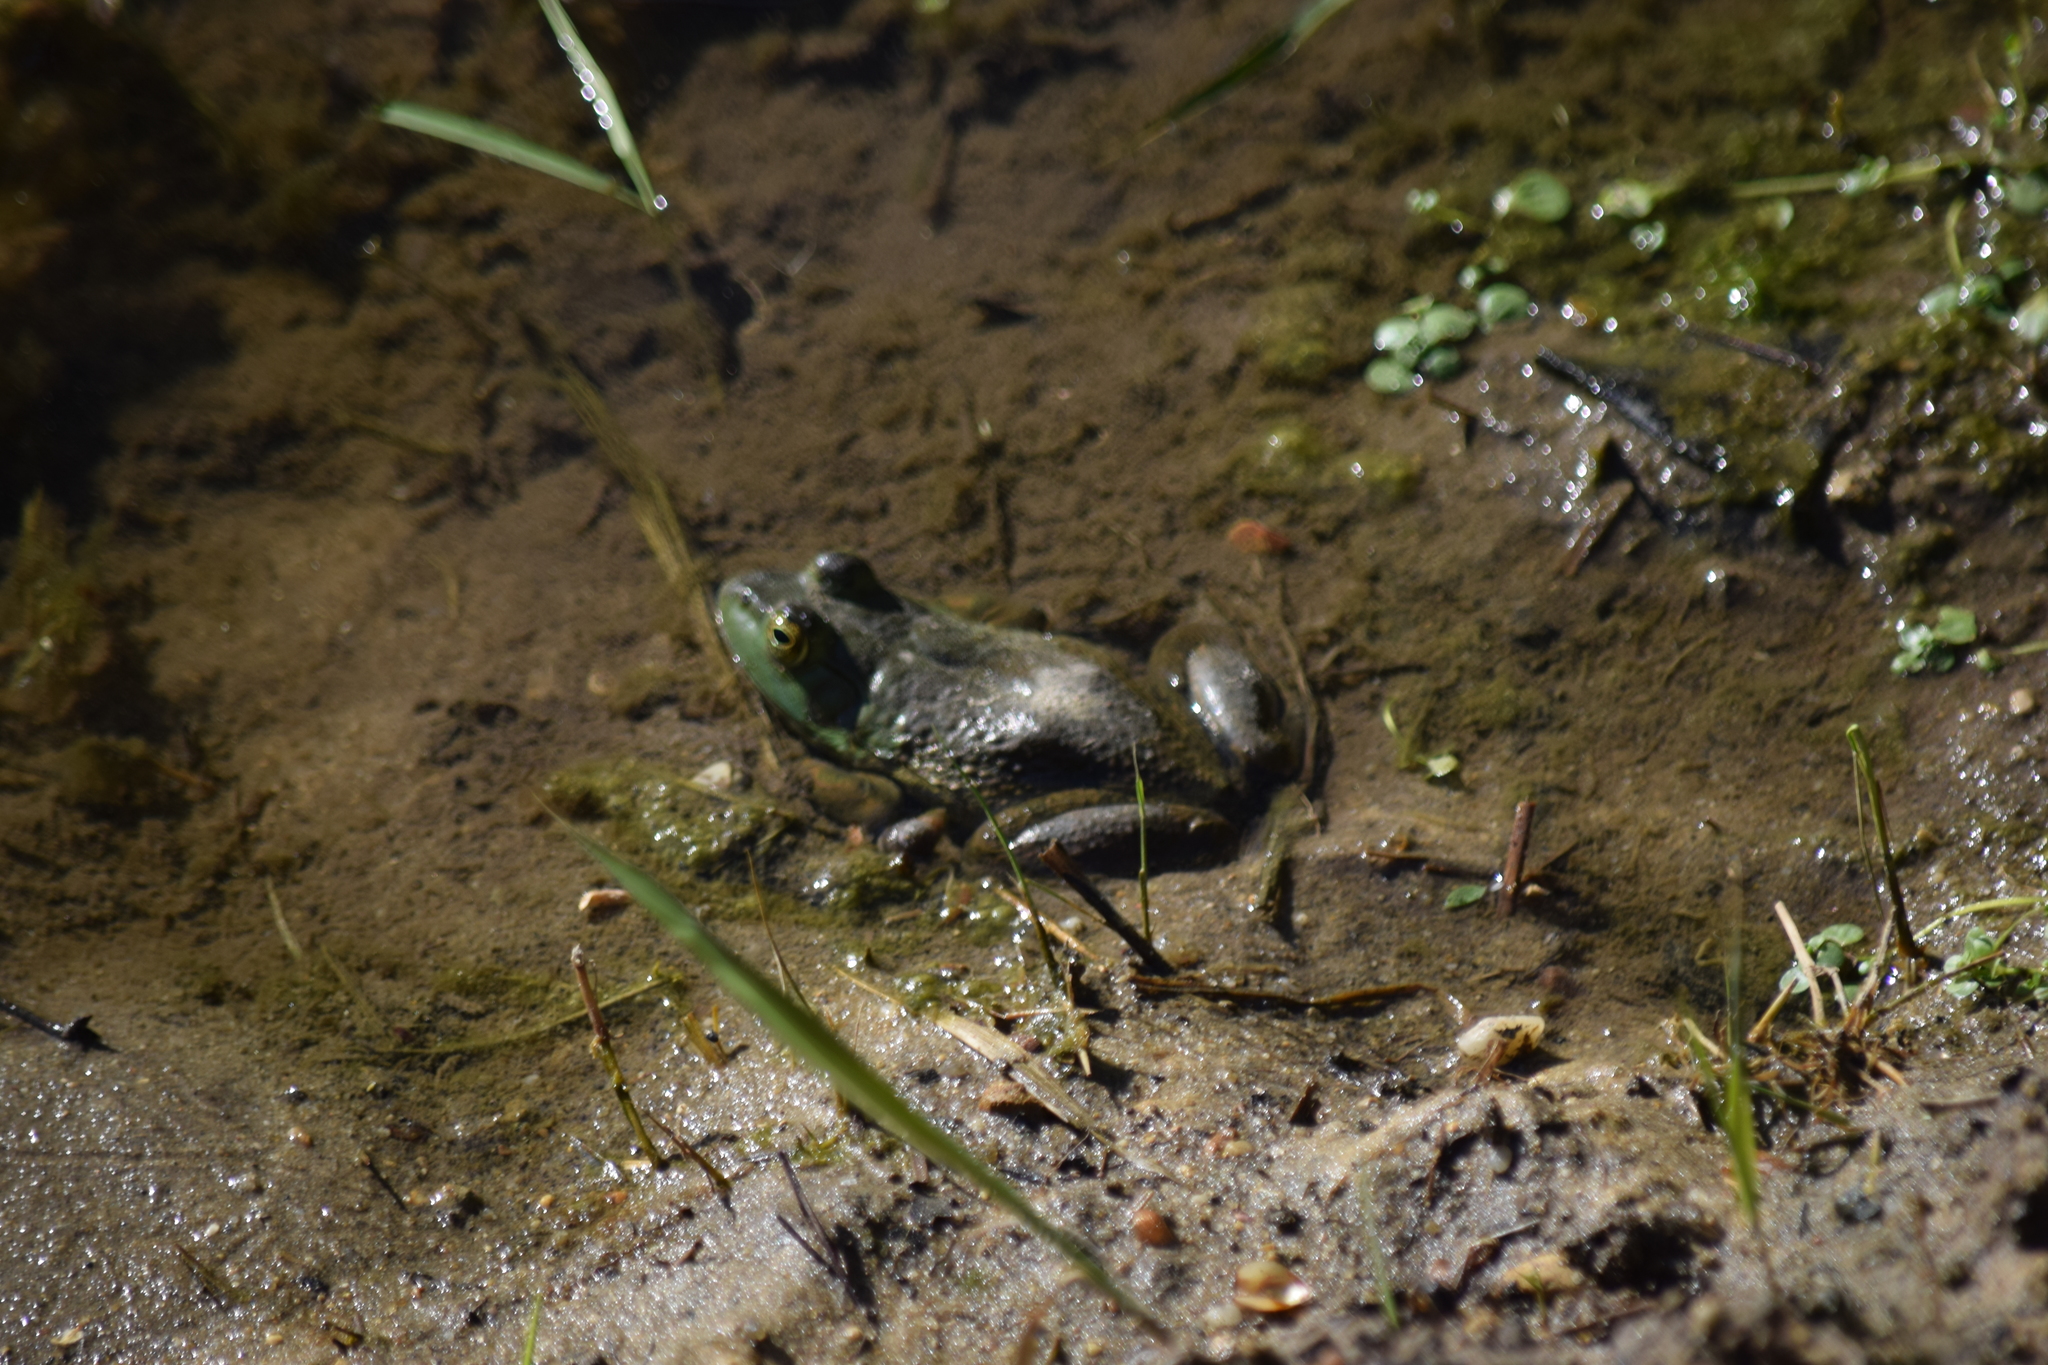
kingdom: Animalia
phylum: Chordata
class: Amphibia
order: Anura
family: Ranidae
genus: Lithobates
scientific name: Lithobates catesbeianus
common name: American bullfrog
